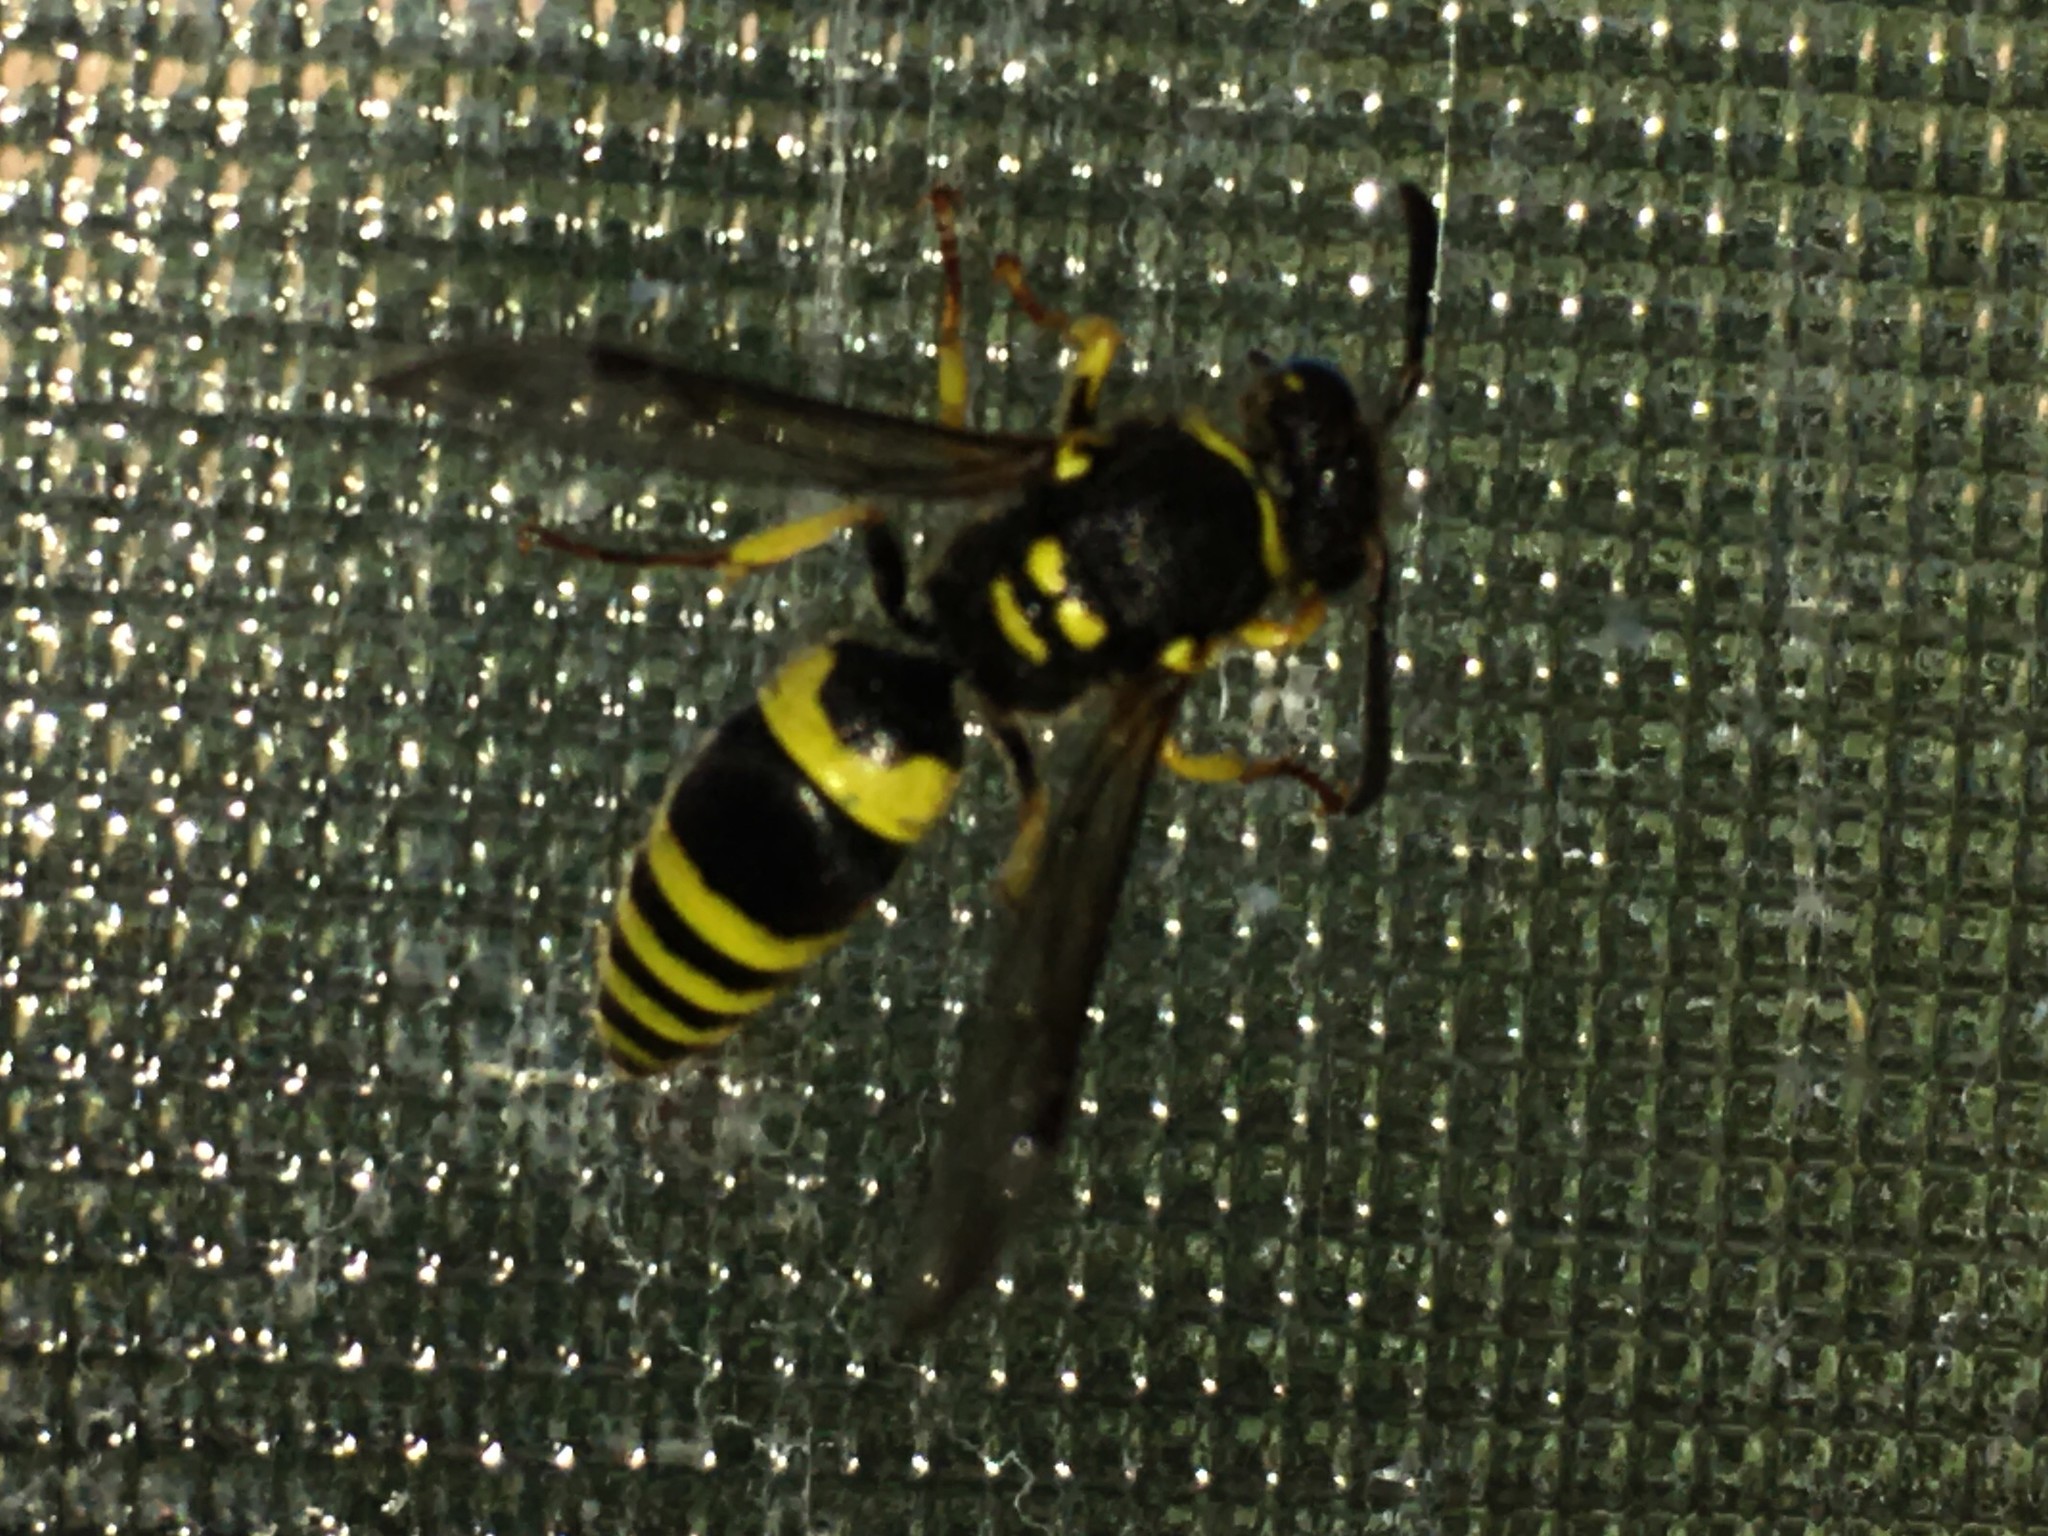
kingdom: Animalia
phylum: Arthropoda
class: Insecta
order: Hymenoptera
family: Vespidae
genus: Ancistrocerus
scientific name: Ancistrocerus gazella
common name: European tube wasp
